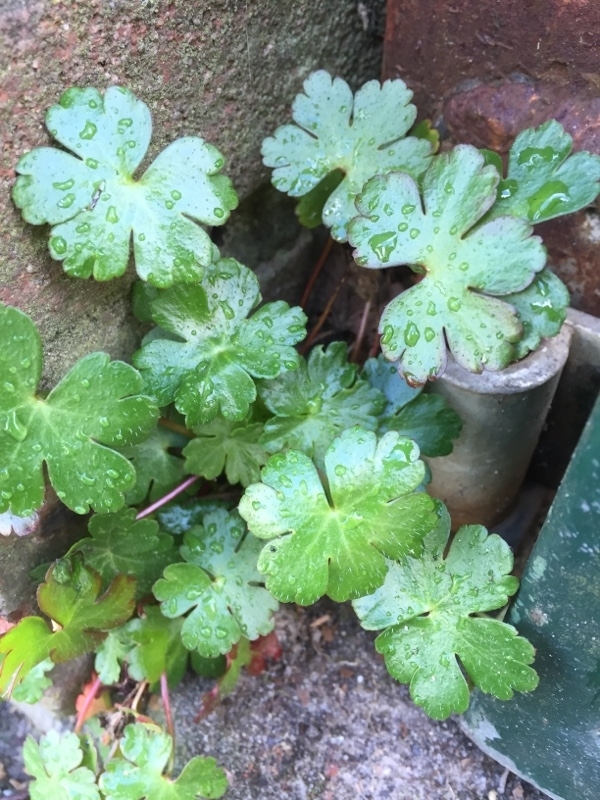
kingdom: Plantae
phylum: Tracheophyta
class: Magnoliopsida
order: Geraniales
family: Geraniaceae
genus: Geranium
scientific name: Geranium lucidum
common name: Shining crane's-bill
